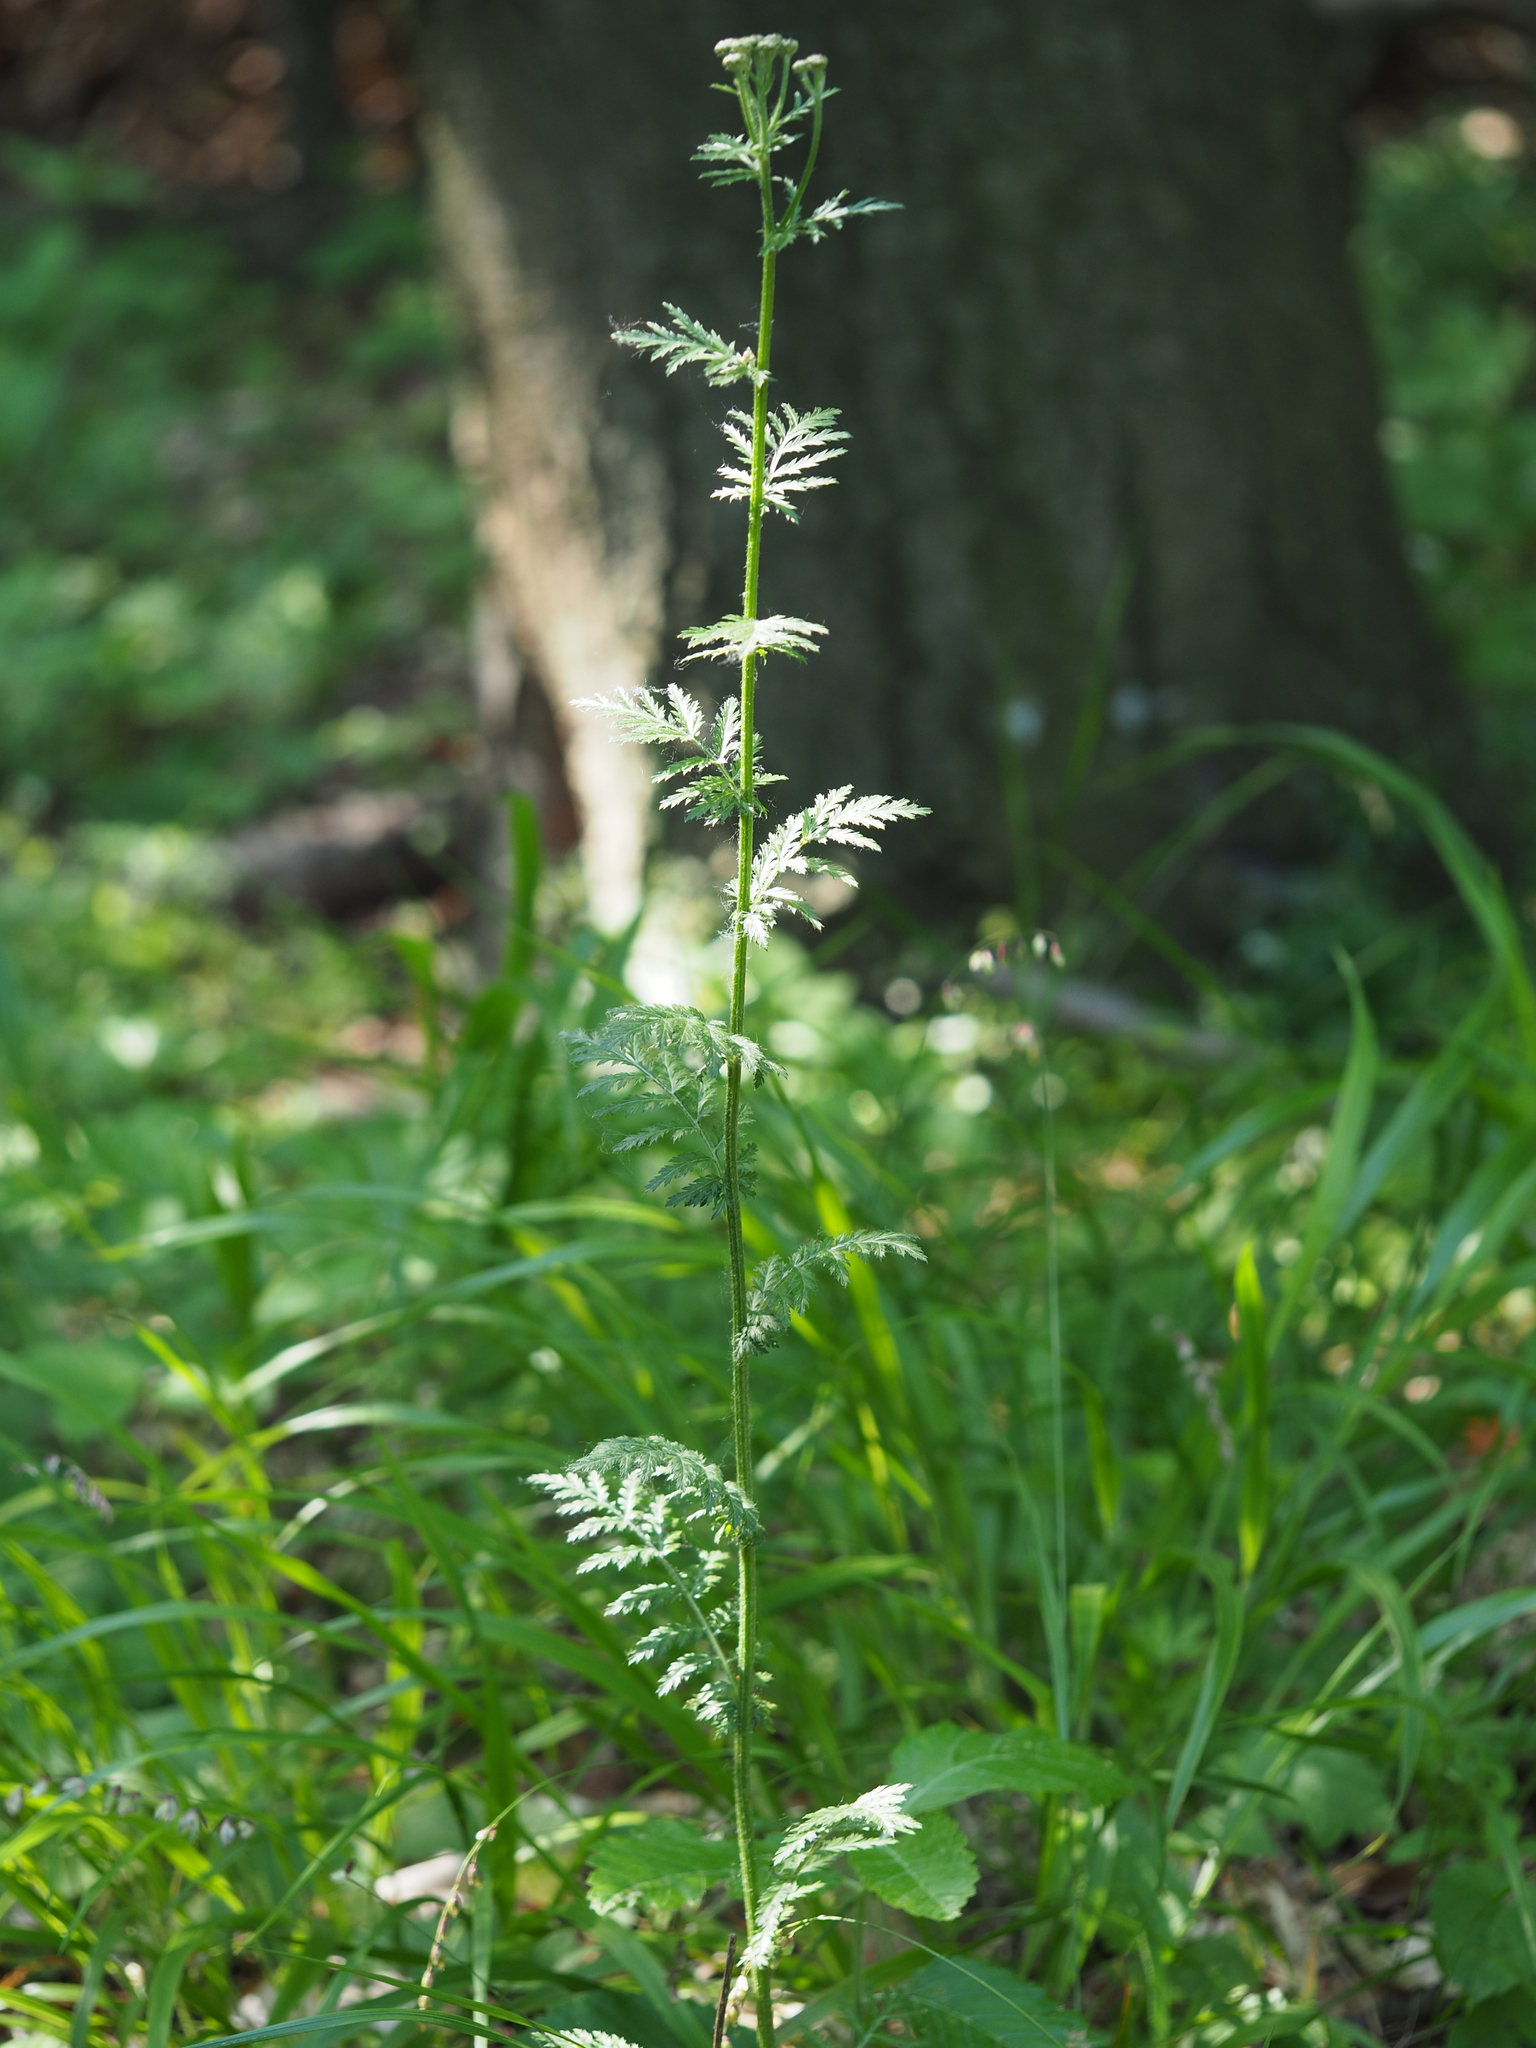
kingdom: Plantae
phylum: Tracheophyta
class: Magnoliopsida
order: Asterales
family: Asteraceae
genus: Tanacetum
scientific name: Tanacetum corymbosum
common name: Scentless feverfew
